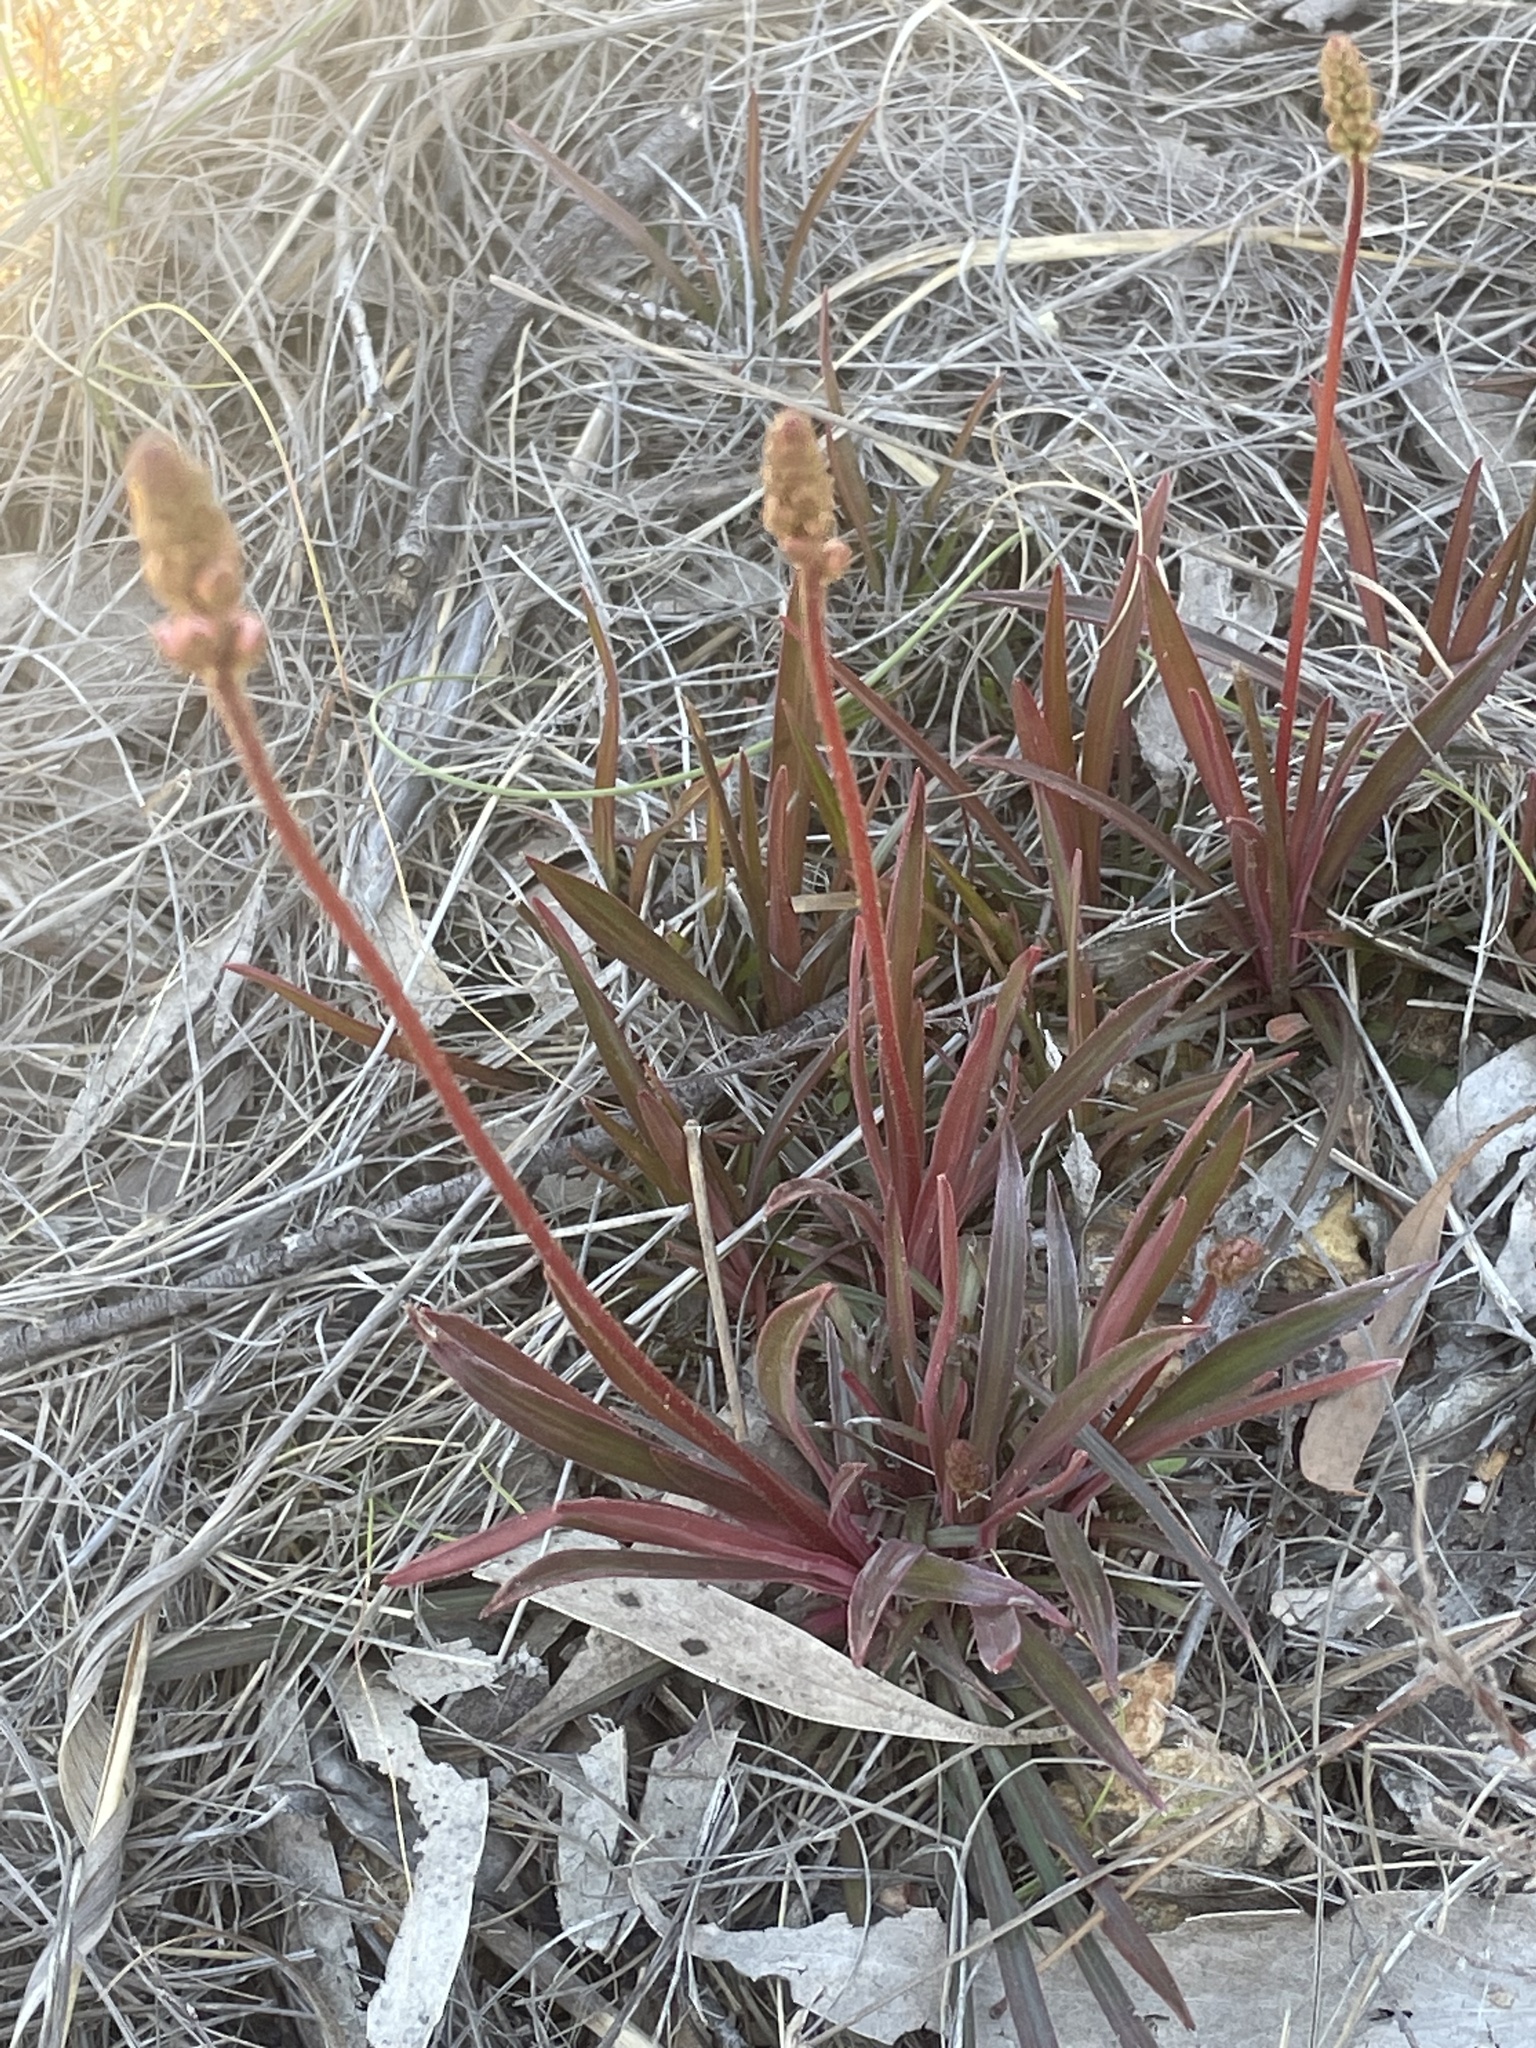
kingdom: Plantae
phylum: Tracheophyta
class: Magnoliopsida
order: Asterales
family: Stylidiaceae
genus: Stylidium
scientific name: Stylidium armeria
